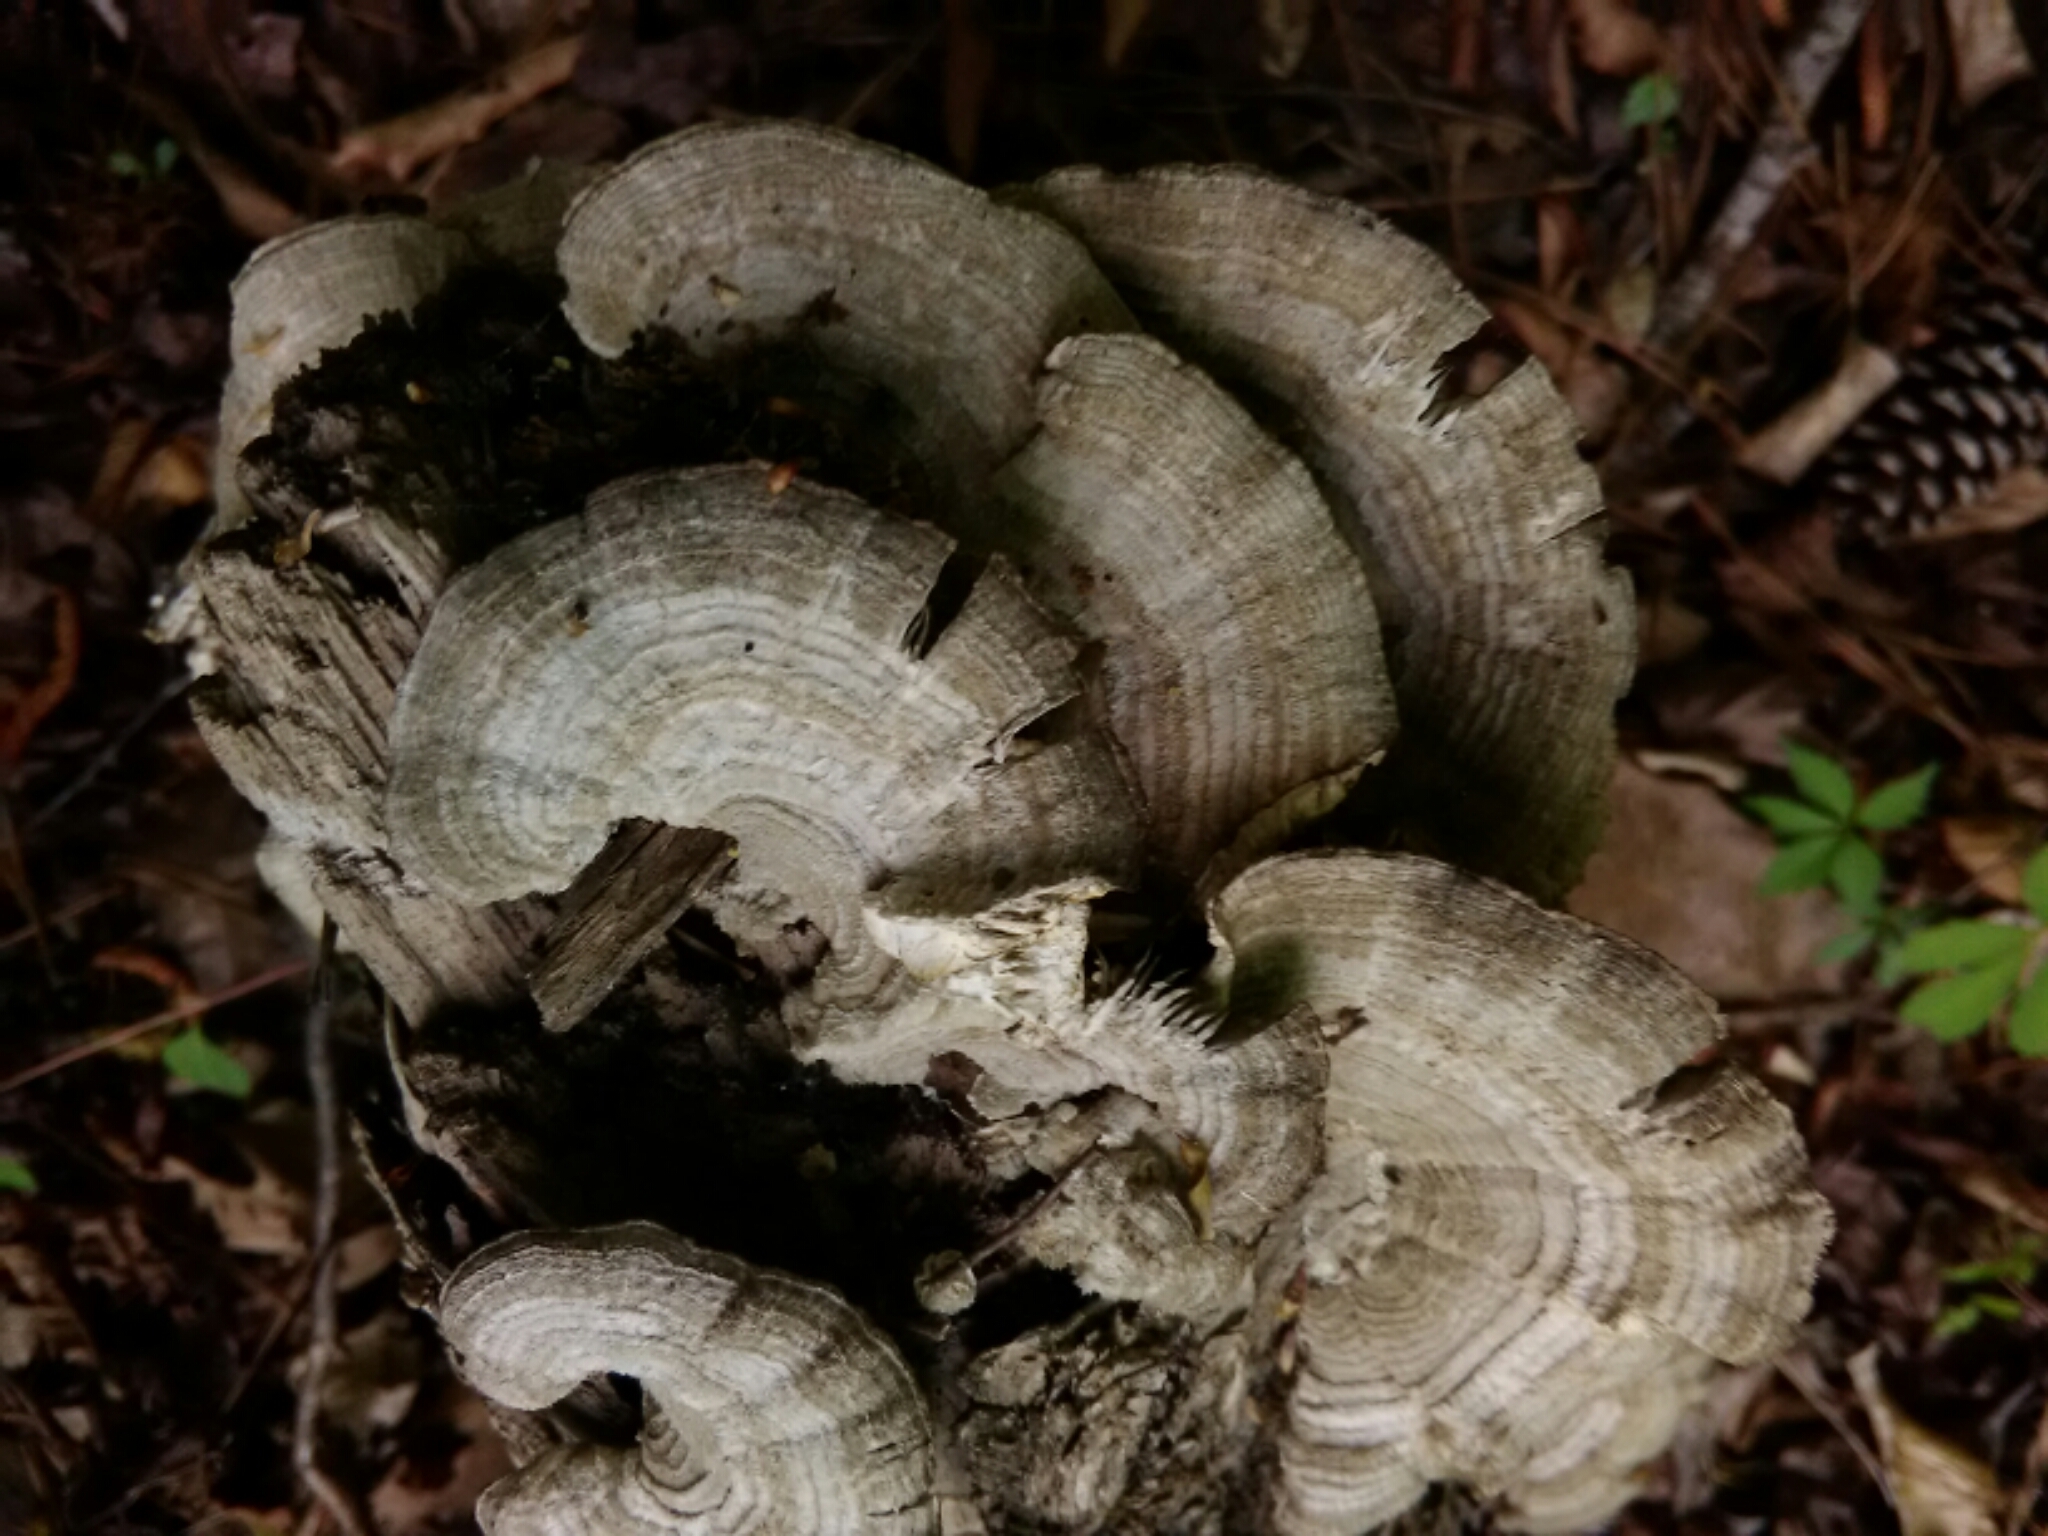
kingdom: Fungi
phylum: Basidiomycota
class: Agaricomycetes
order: Polyporales
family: Polyporaceae
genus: Lenzites
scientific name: Lenzites betulinus
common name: Birch mazegill
